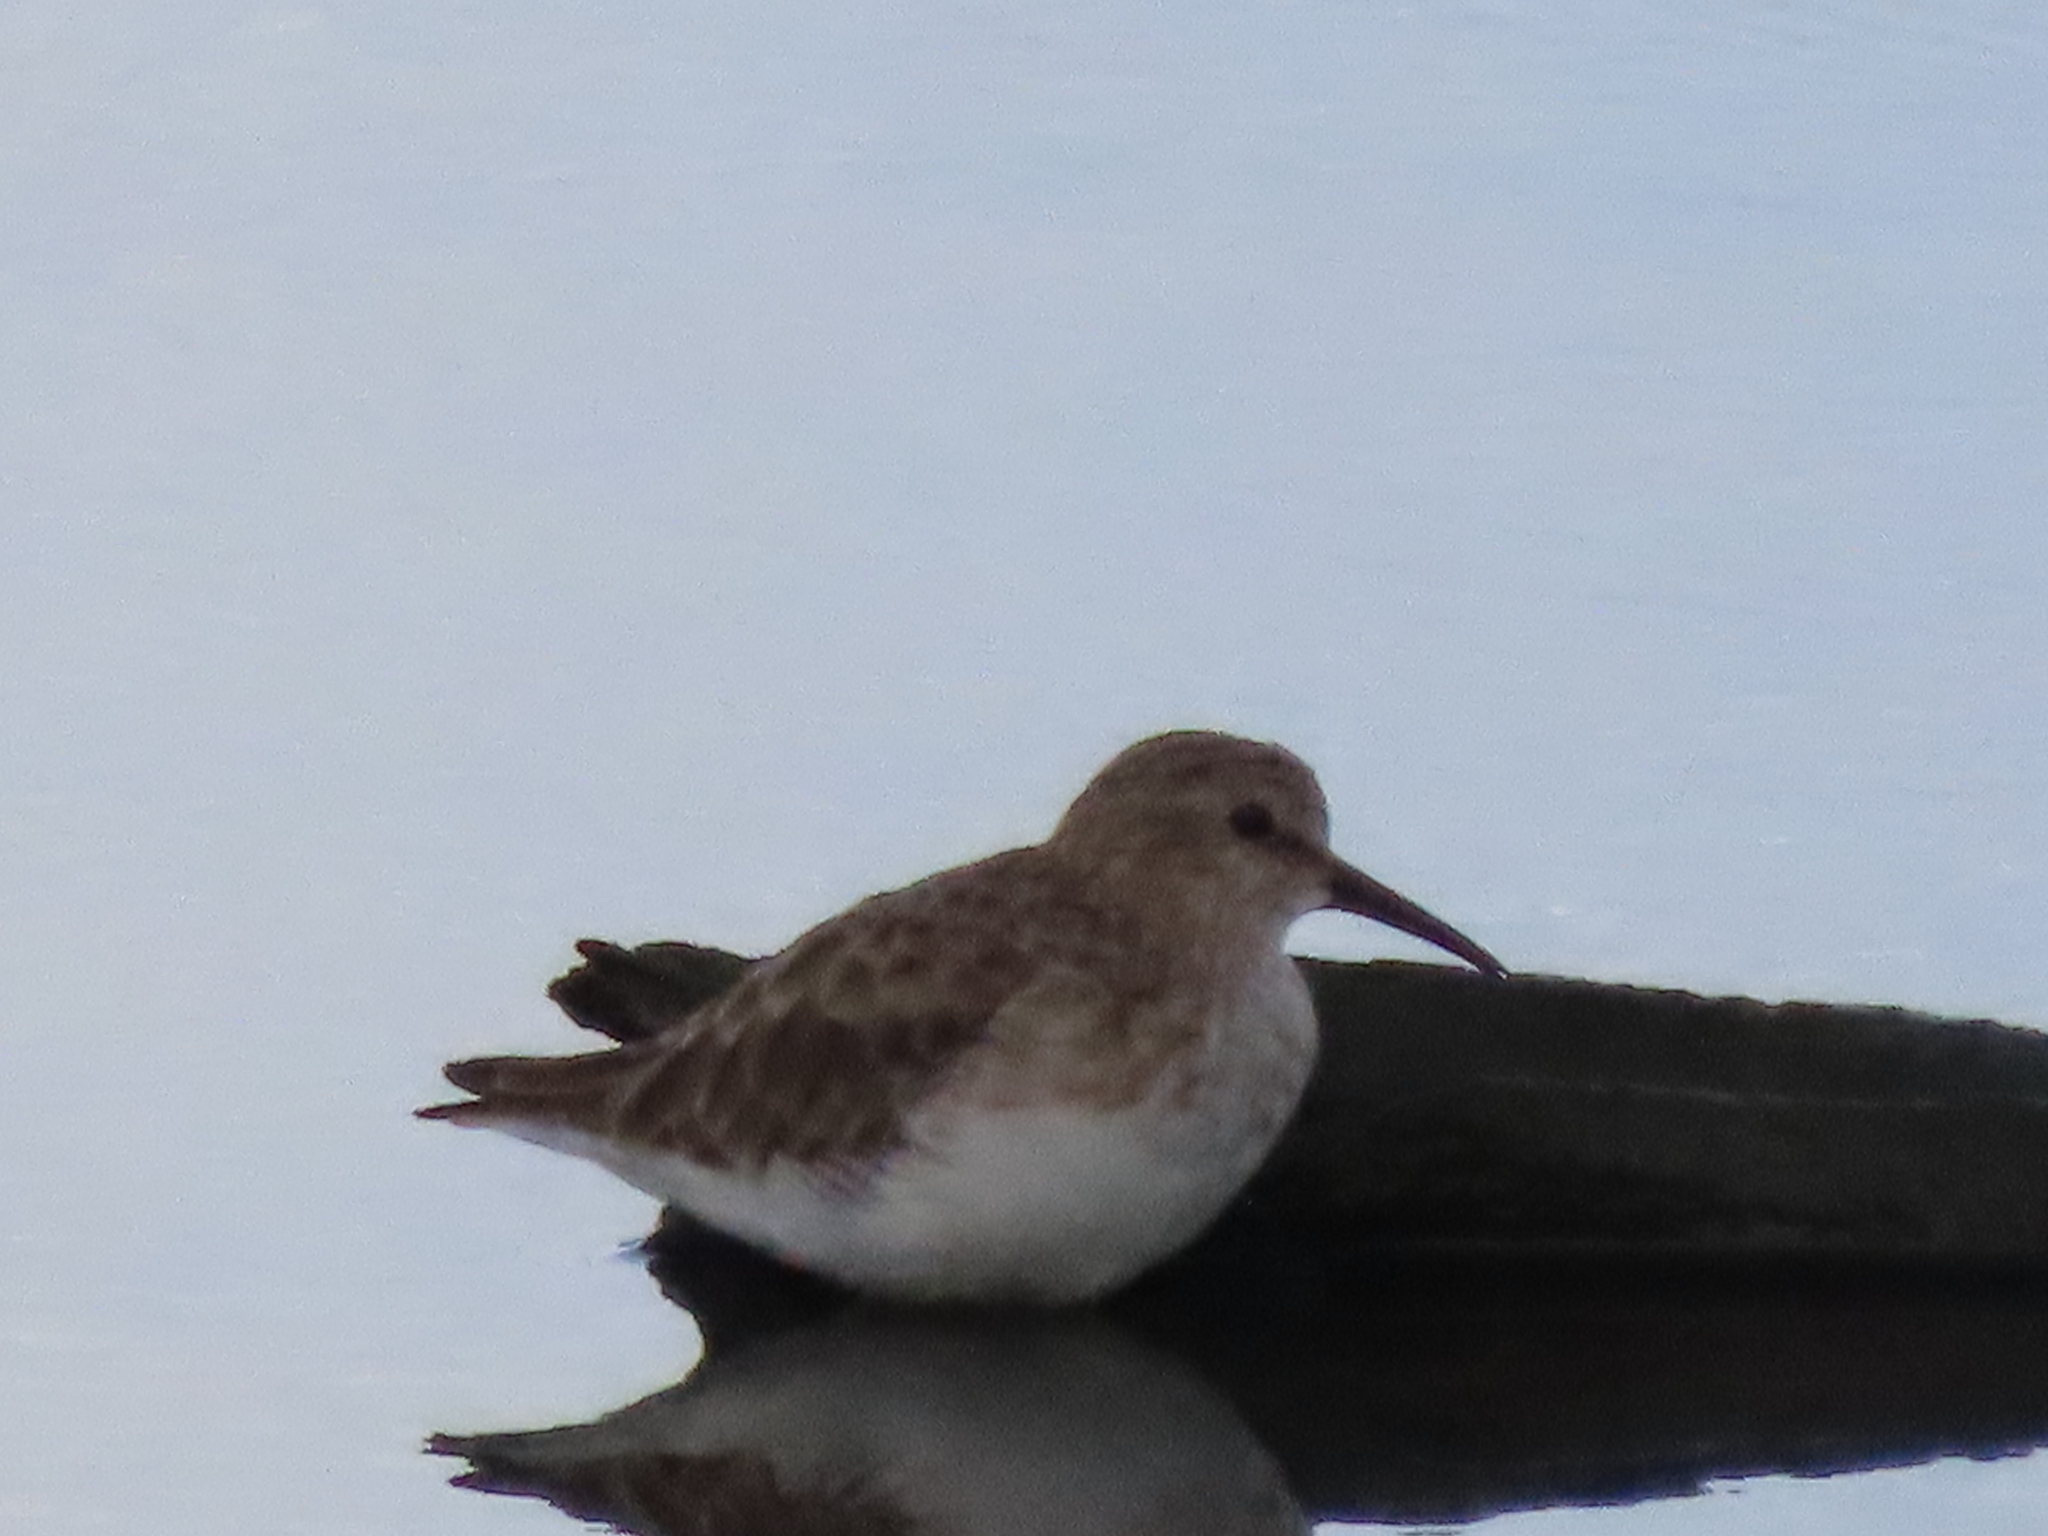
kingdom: Animalia
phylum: Chordata
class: Aves
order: Charadriiformes
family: Scolopacidae
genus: Calidris
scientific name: Calidris minutilla
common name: Least sandpiper
